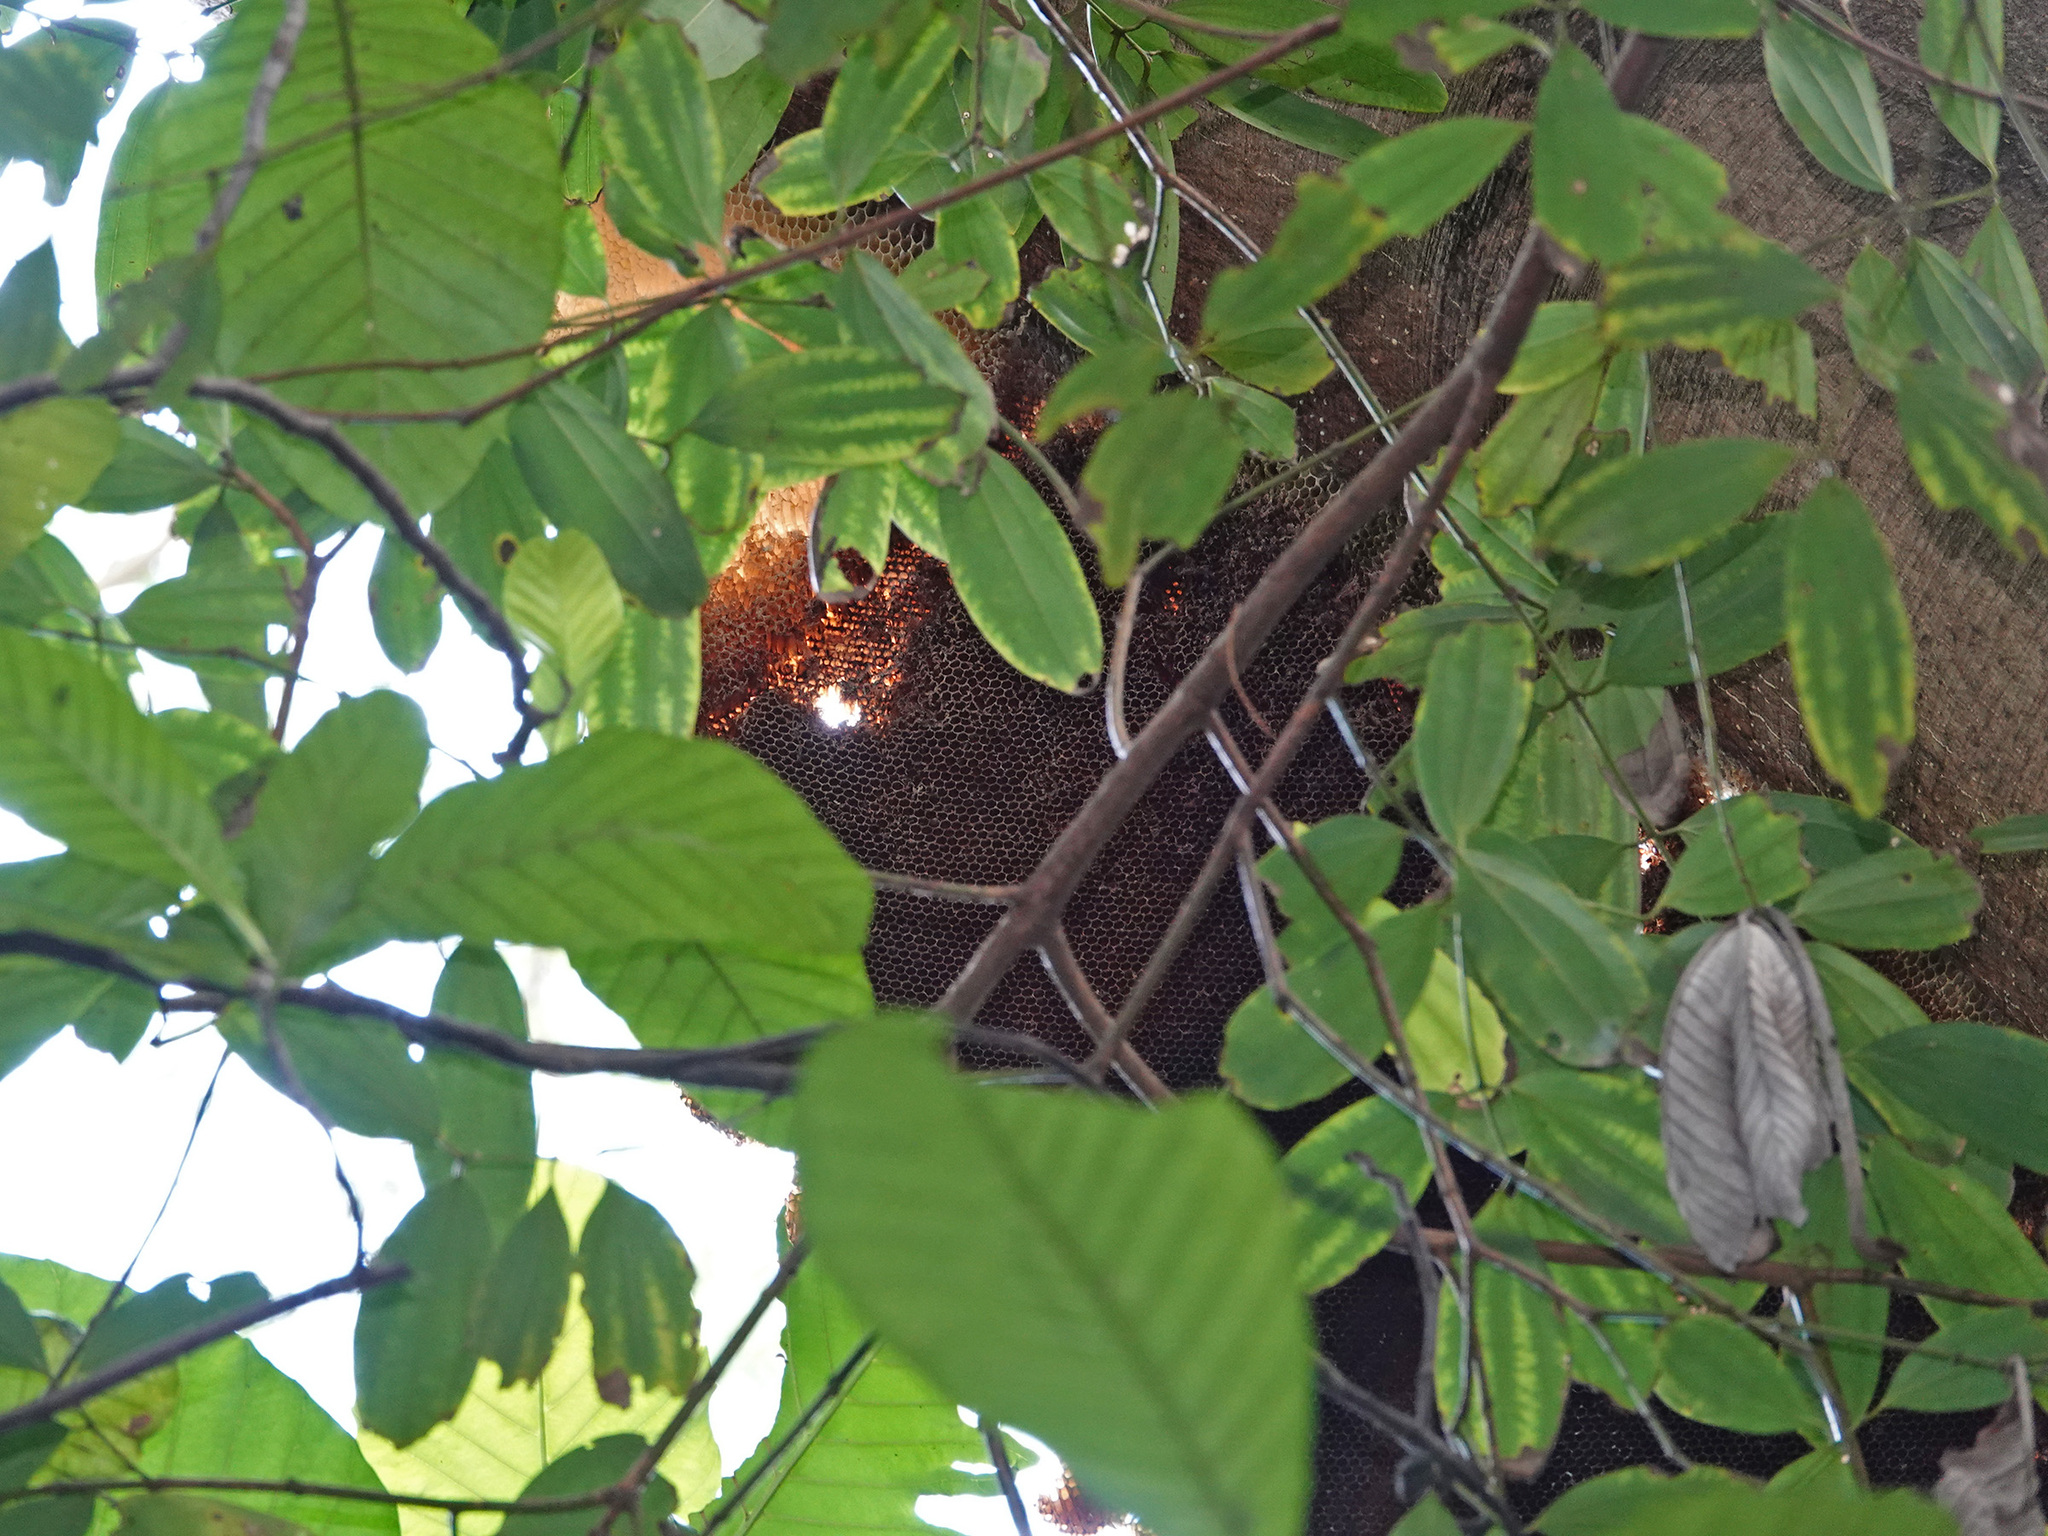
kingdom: Animalia
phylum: Arthropoda
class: Insecta
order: Hymenoptera
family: Apidae
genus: Apis
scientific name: Apis dorsata
